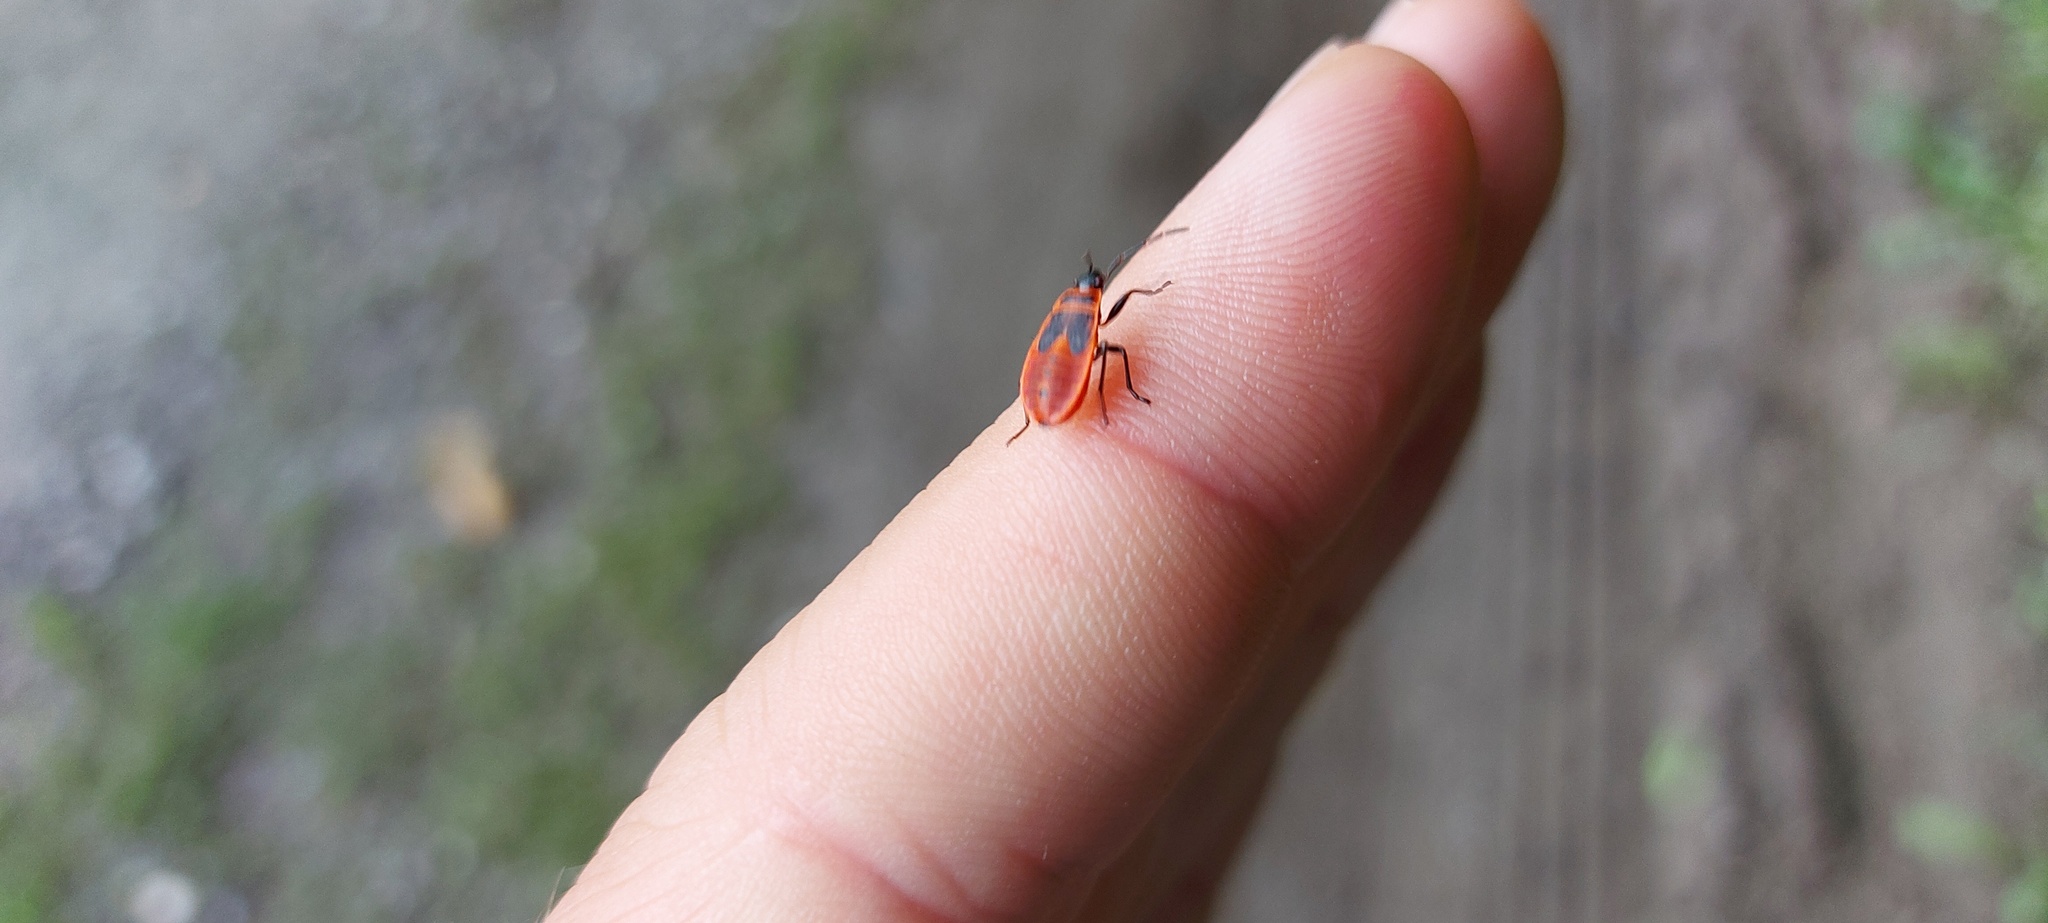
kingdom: Animalia
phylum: Arthropoda
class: Insecta
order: Hemiptera
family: Pyrrhocoridae
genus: Pyrrhocoris
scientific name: Pyrrhocoris apterus
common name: Firebug
